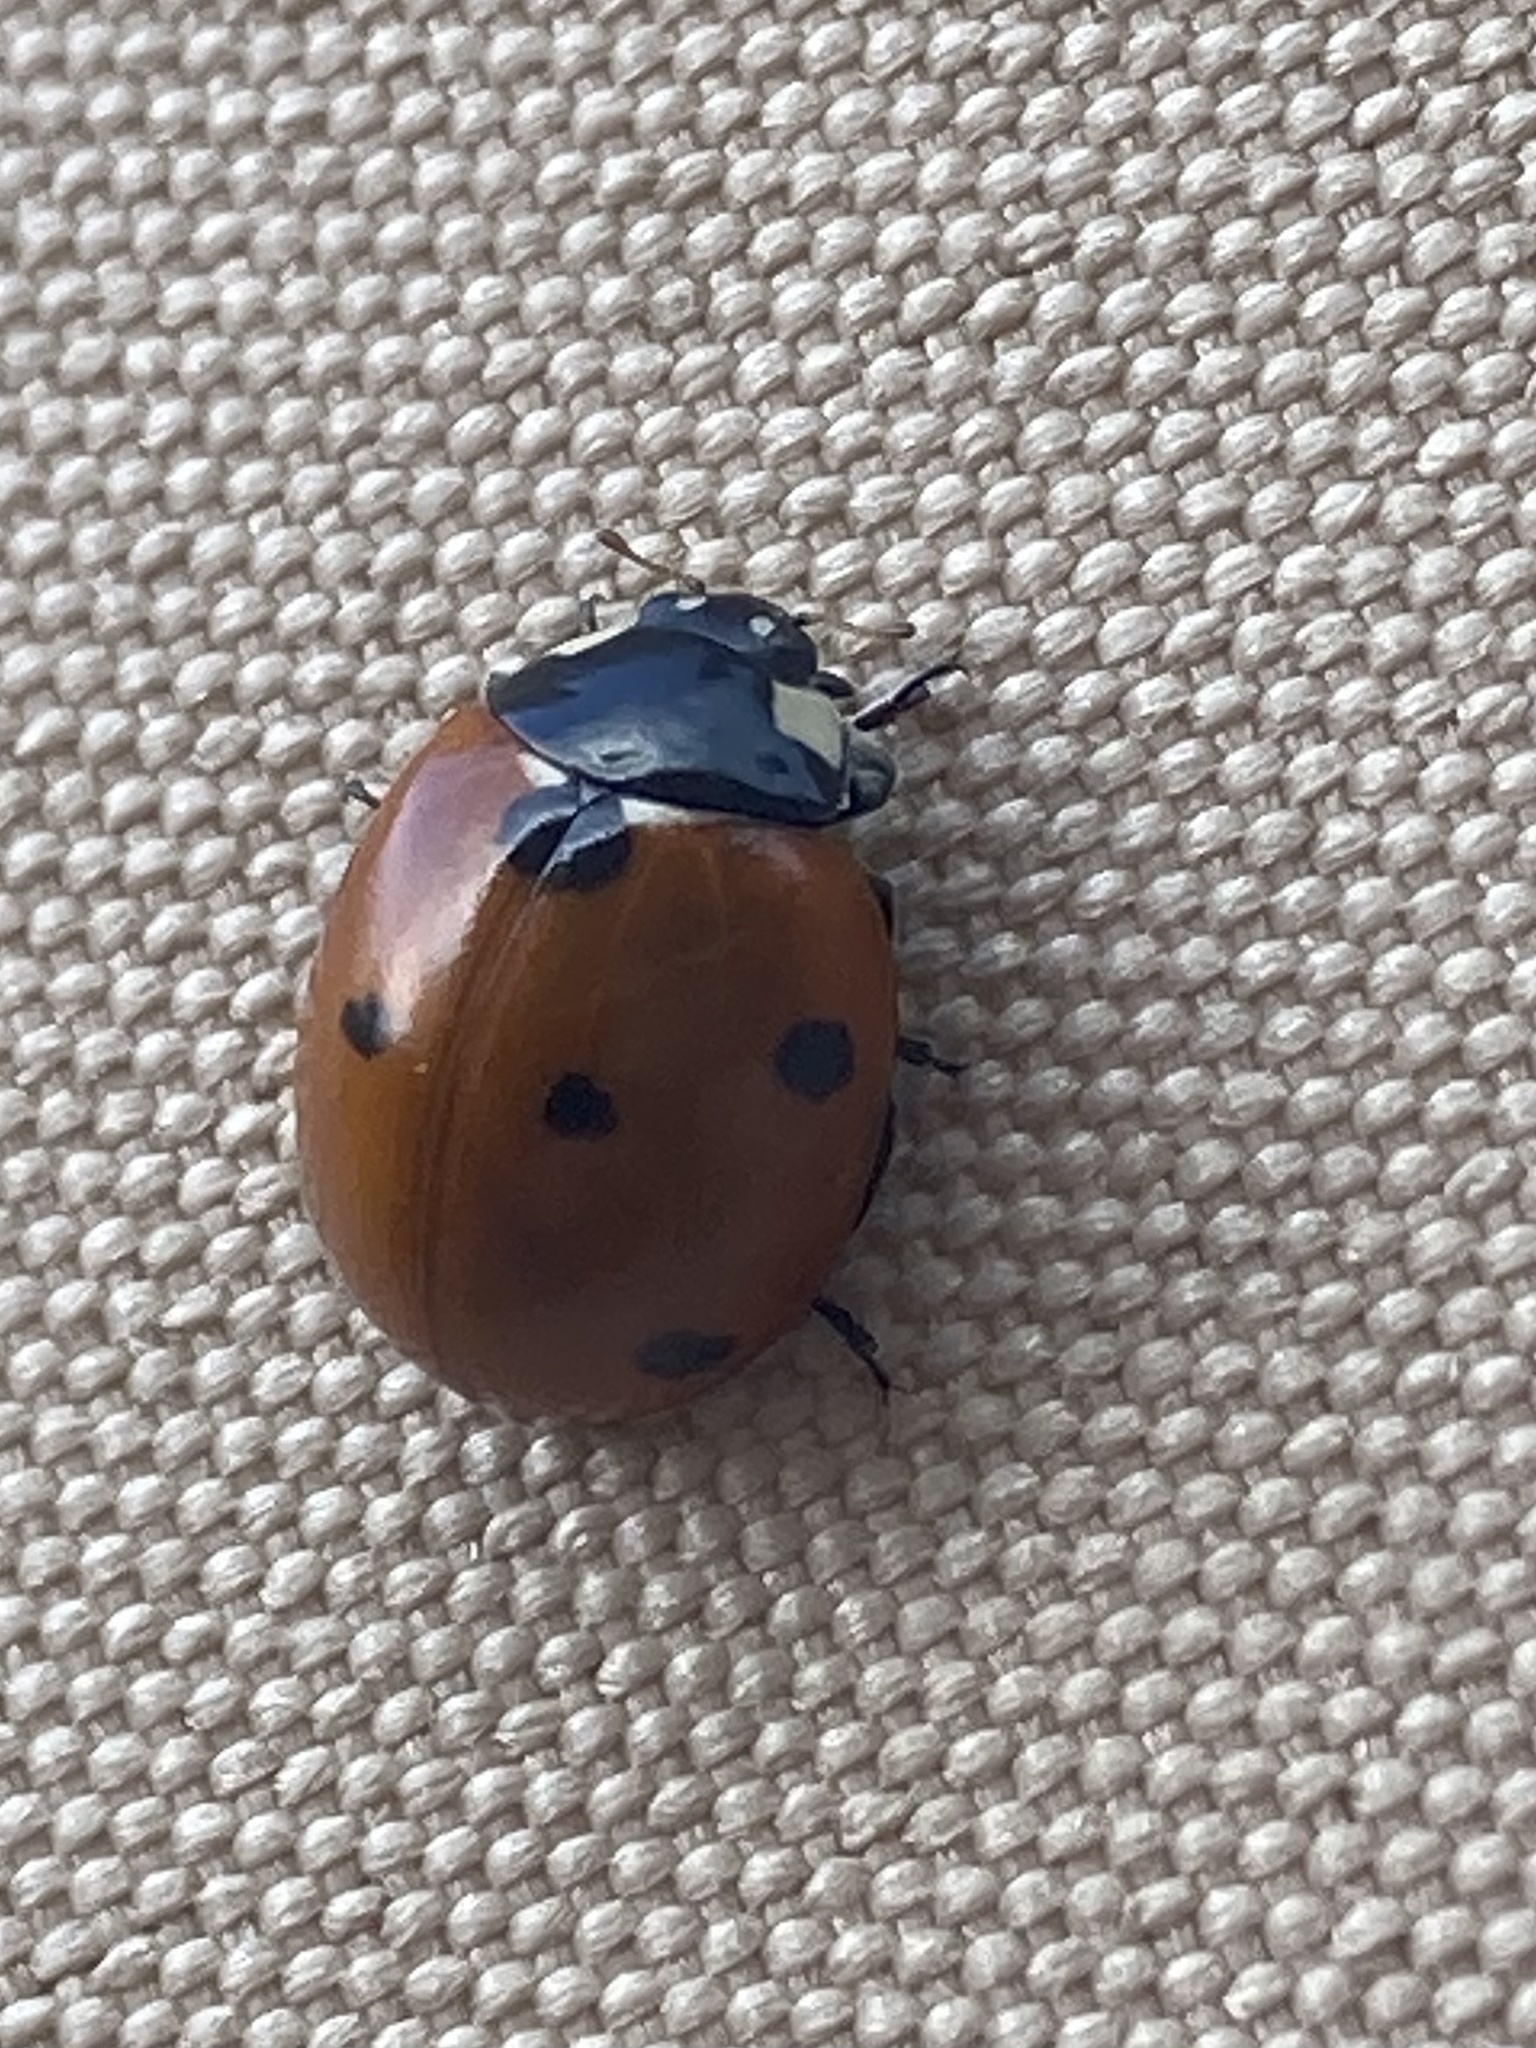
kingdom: Animalia
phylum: Arthropoda
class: Insecta
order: Coleoptera
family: Coccinellidae
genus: Coccinella
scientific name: Coccinella septempunctata
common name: Sevenspotted lady beetle
